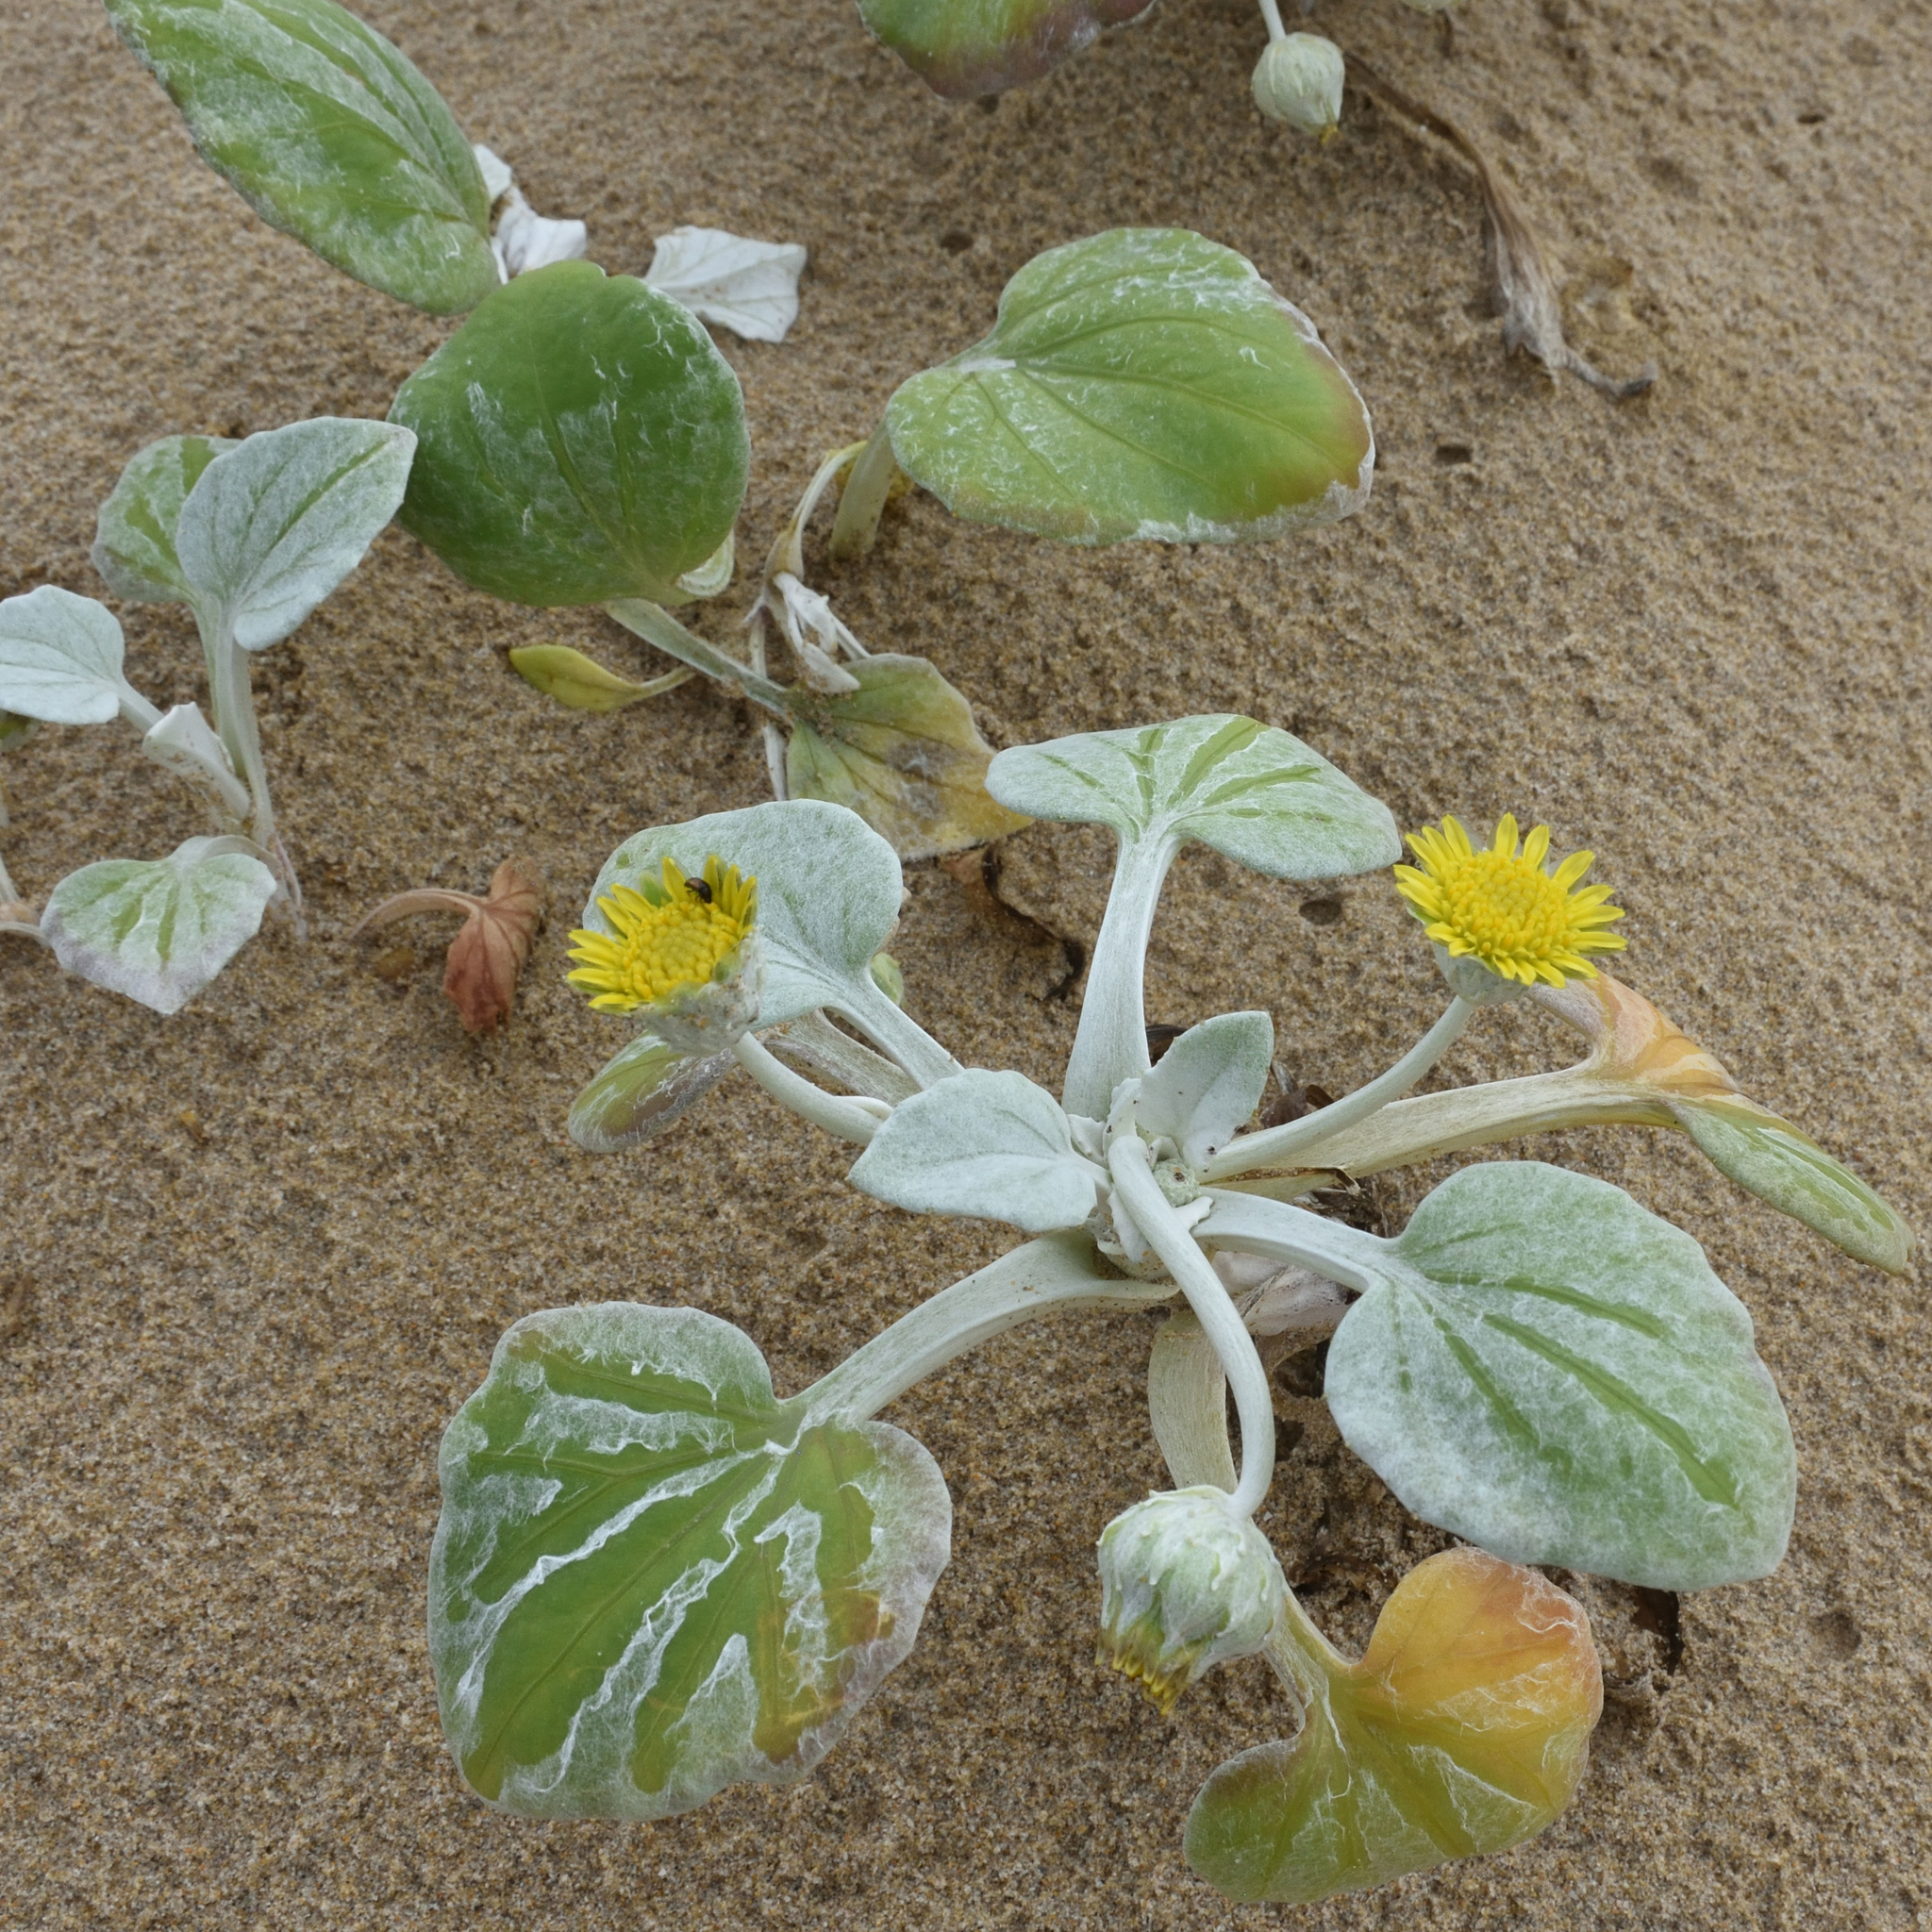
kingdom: Plantae
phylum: Tracheophyta
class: Magnoliopsida
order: Asterales
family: Asteraceae
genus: Arctotheca
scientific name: Arctotheca populifolia
